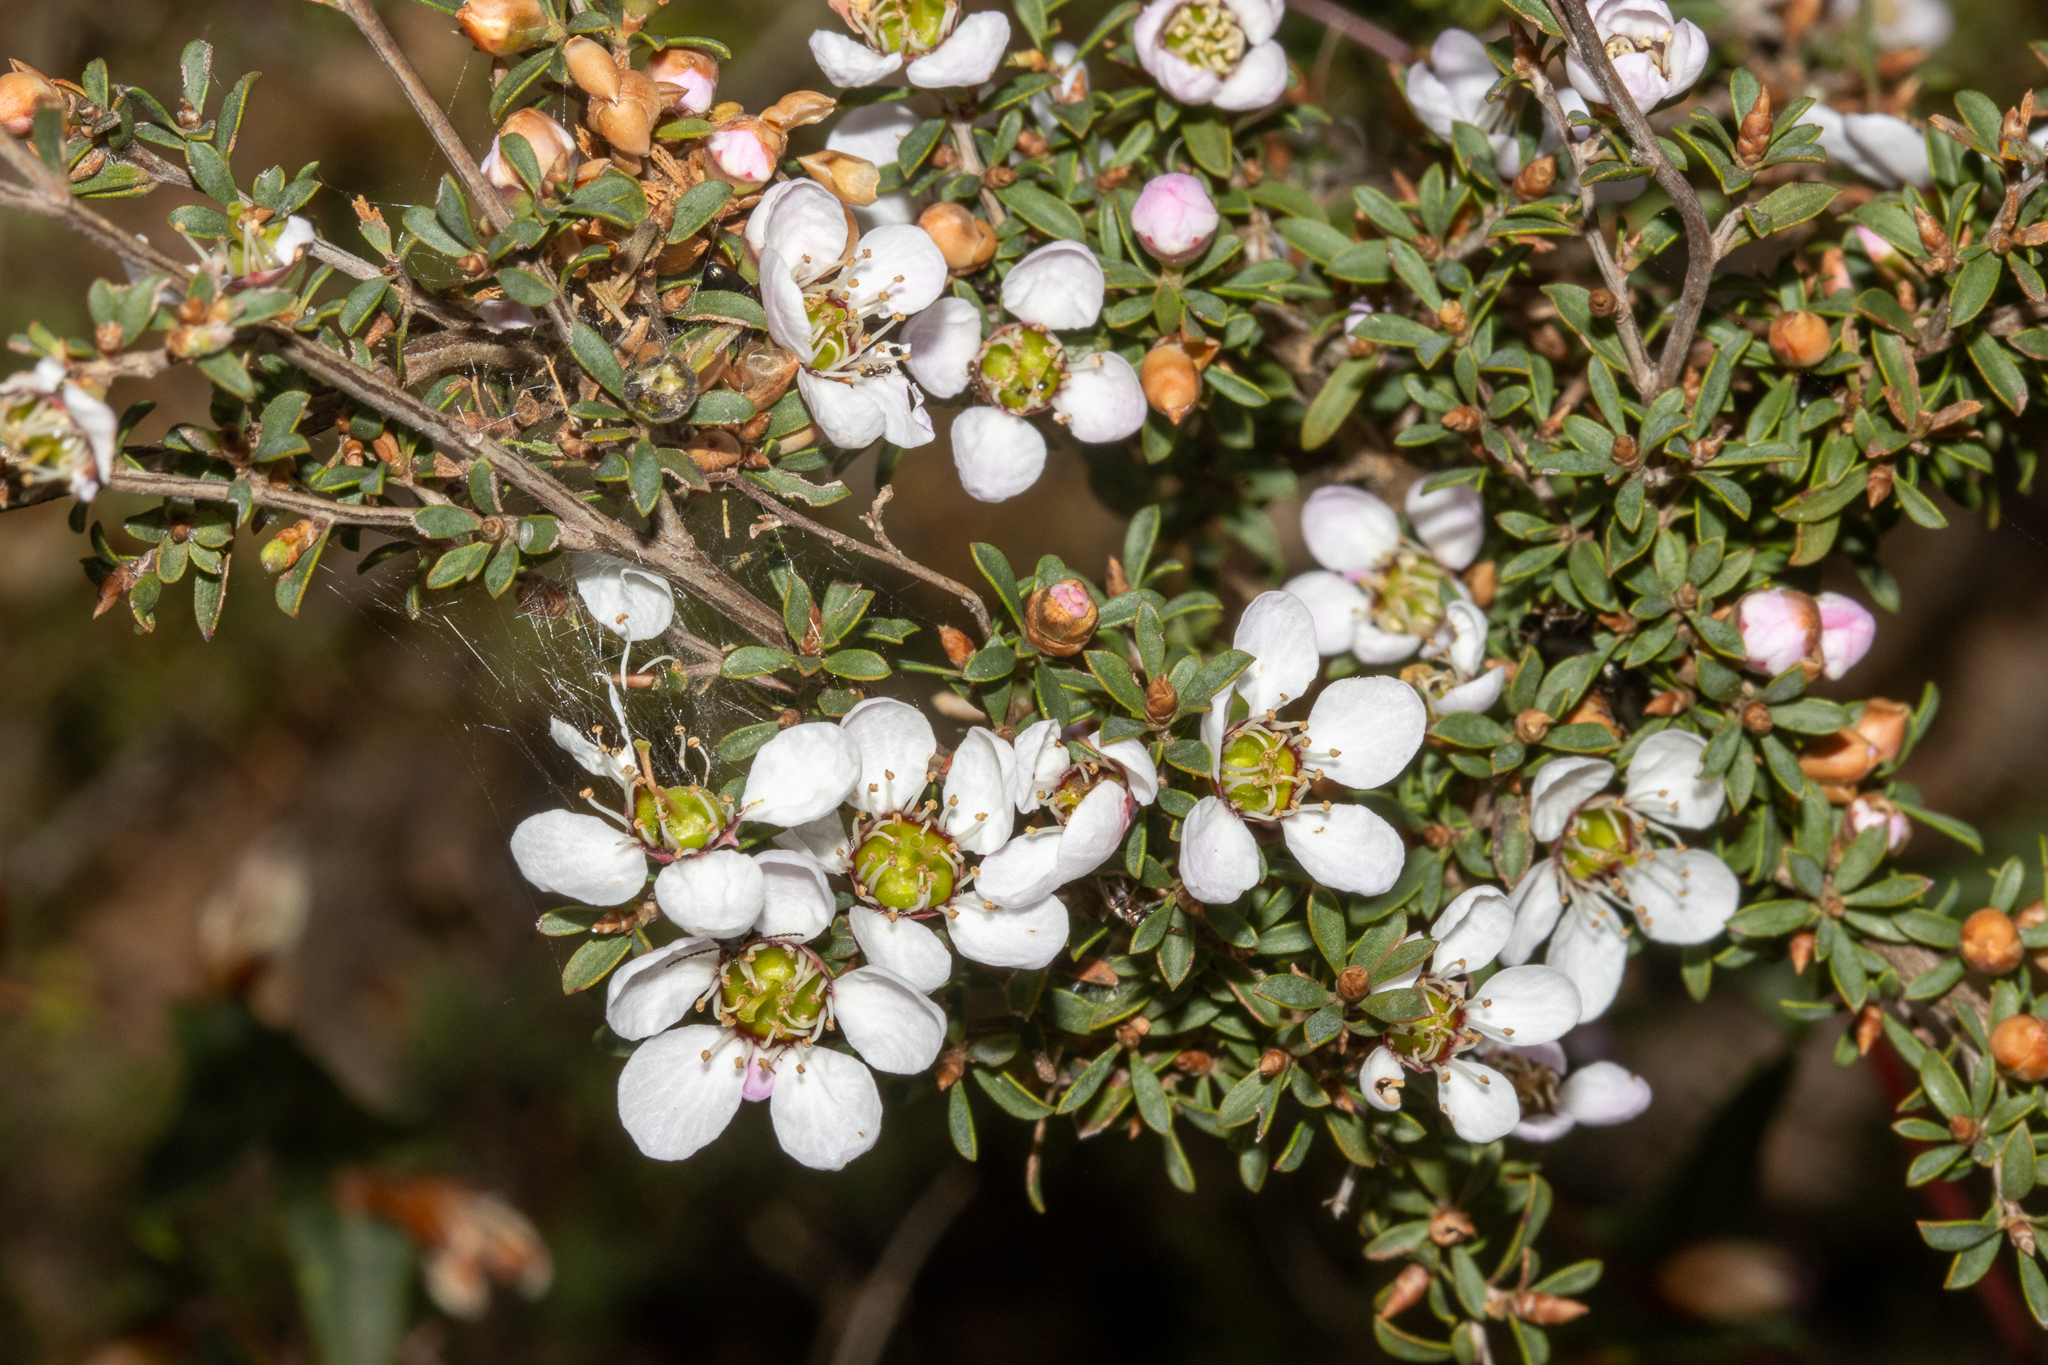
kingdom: Plantae
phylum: Tracheophyta
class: Magnoliopsida
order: Myrtales
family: Myrtaceae
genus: Leptospermum
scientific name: Leptospermum myrsinoides
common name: Heath teatree
